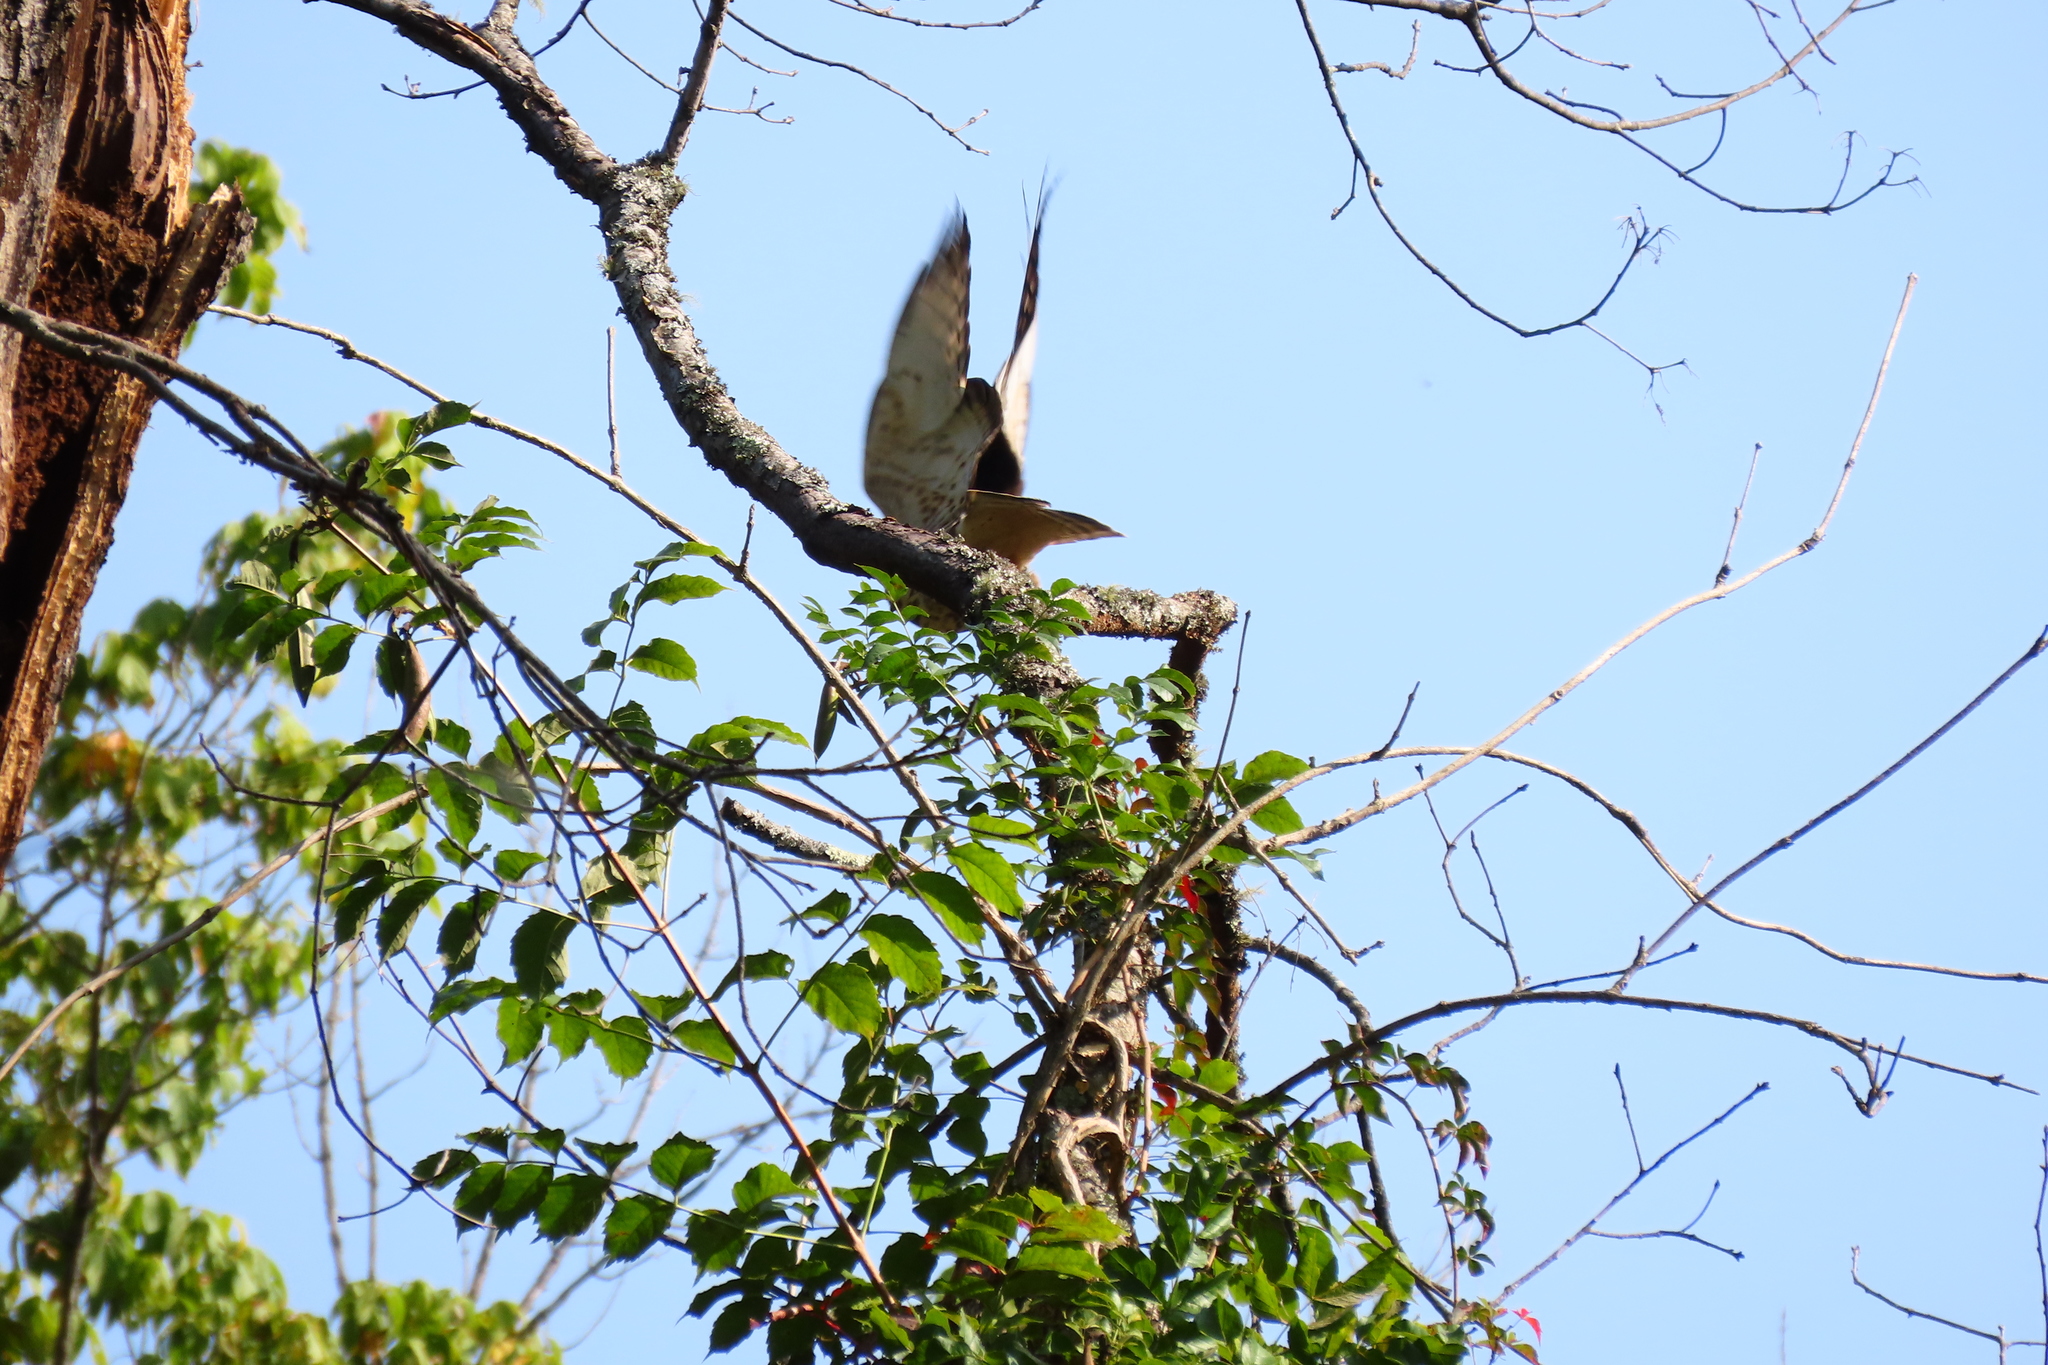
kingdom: Animalia
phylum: Chordata
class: Aves
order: Accipitriformes
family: Accipitridae
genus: Buteo
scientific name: Buteo platypterus
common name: Broad-winged hawk
